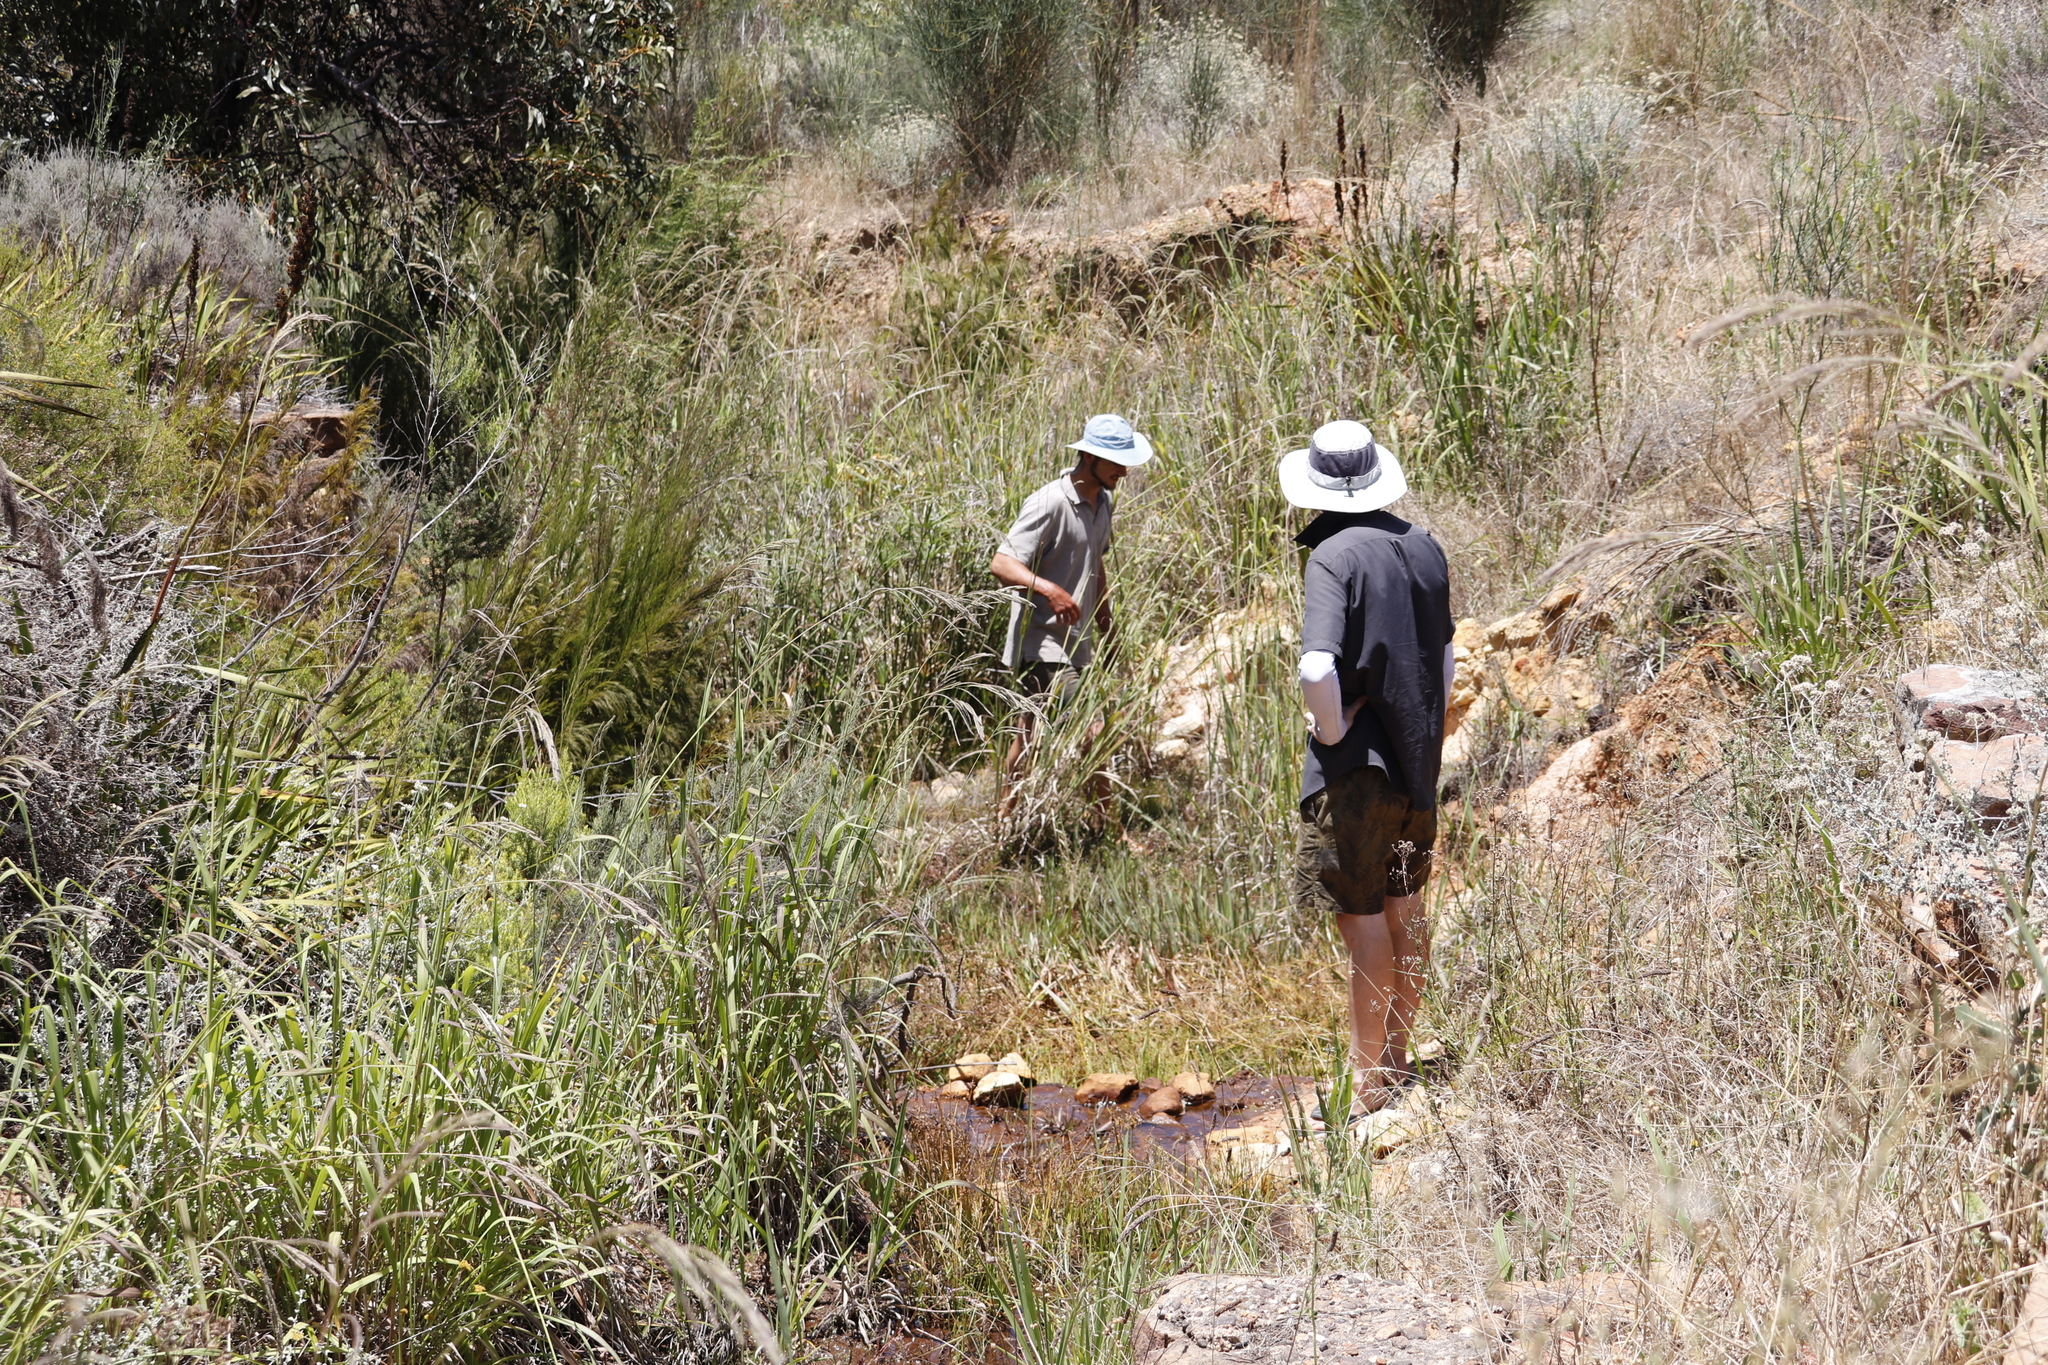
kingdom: Plantae
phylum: Tracheophyta
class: Liliopsida
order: Poales
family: Poaceae
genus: Paspalum
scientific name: Paspalum urvillei
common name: Vasey's grass
